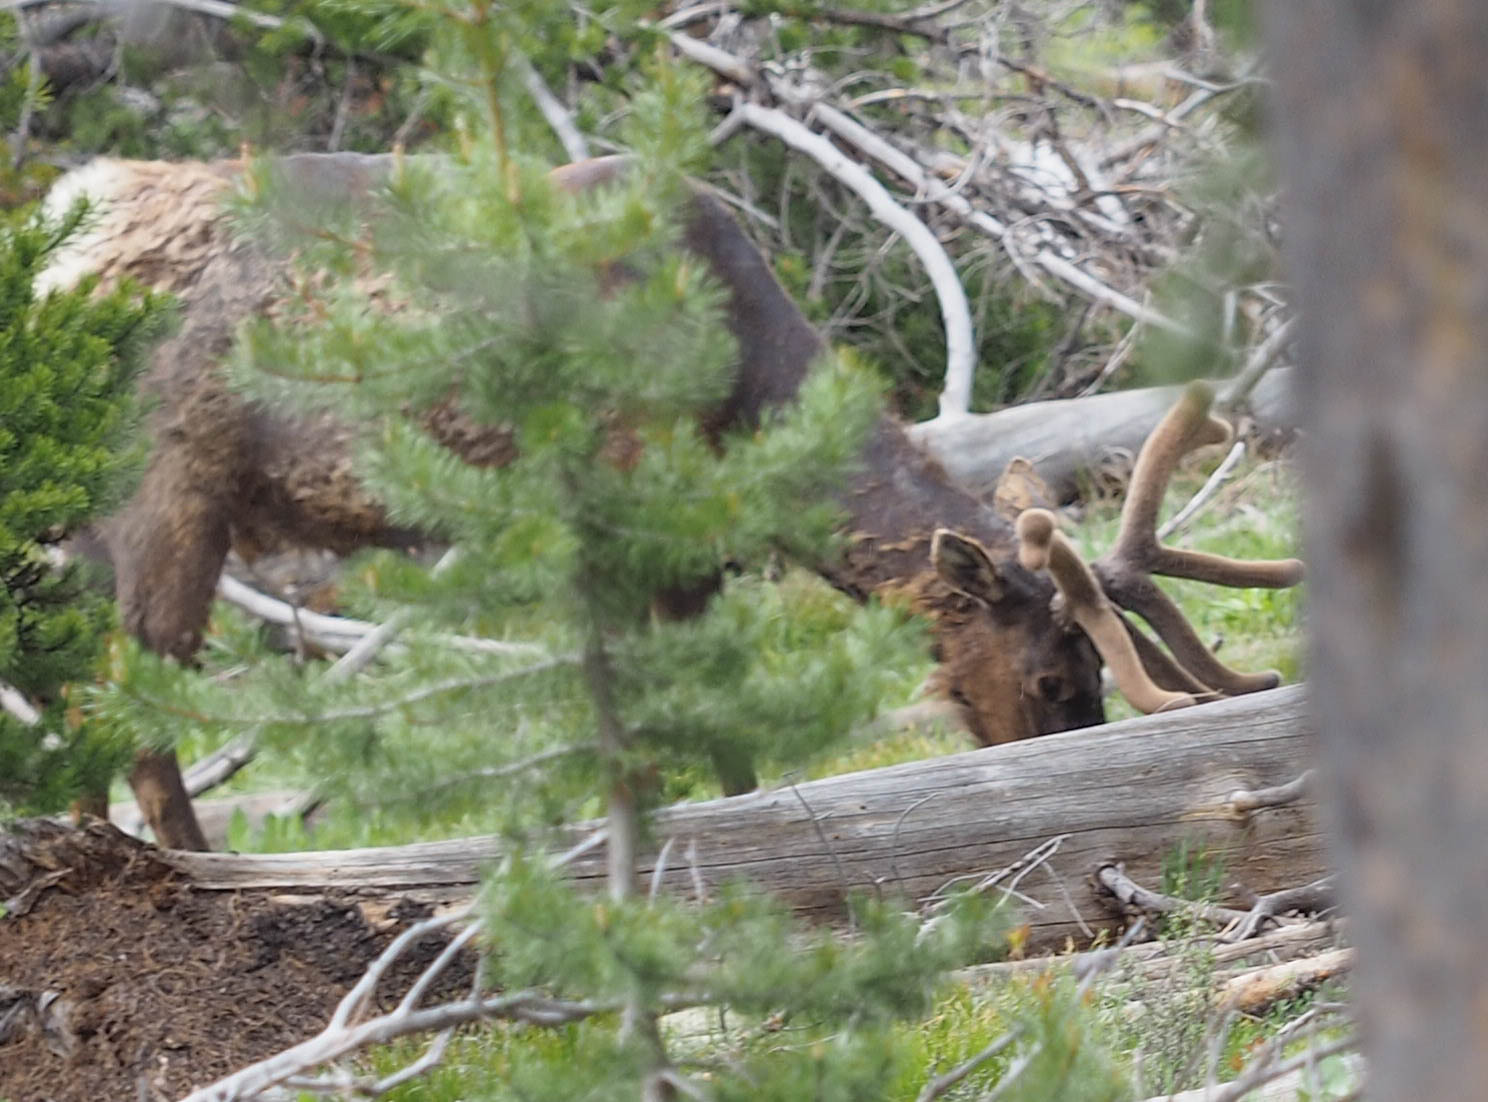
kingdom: Animalia
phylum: Chordata
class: Mammalia
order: Artiodactyla
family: Cervidae
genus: Cervus
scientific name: Cervus elaphus
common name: Red deer
